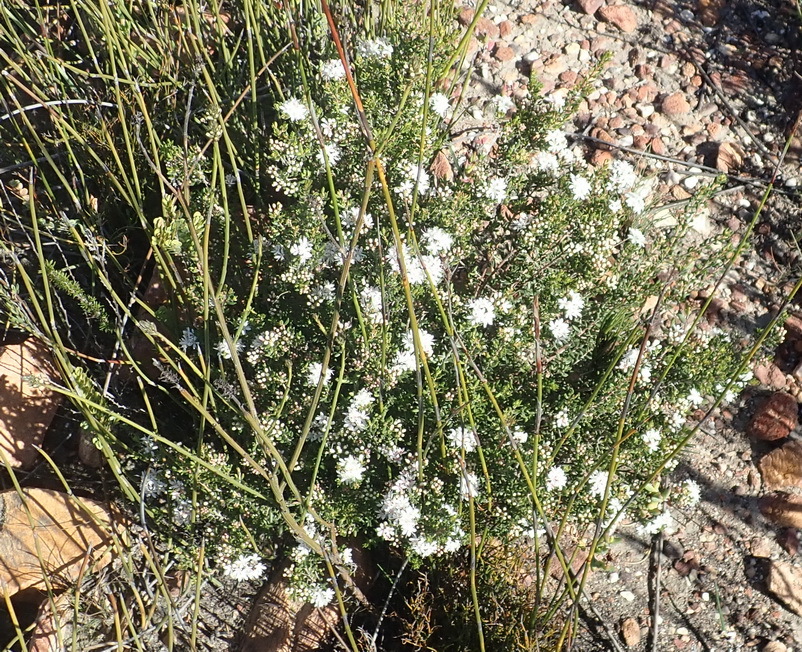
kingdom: Plantae
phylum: Tracheophyta
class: Magnoliopsida
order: Sapindales
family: Rutaceae
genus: Agathosma
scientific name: Agathosma mundtii
